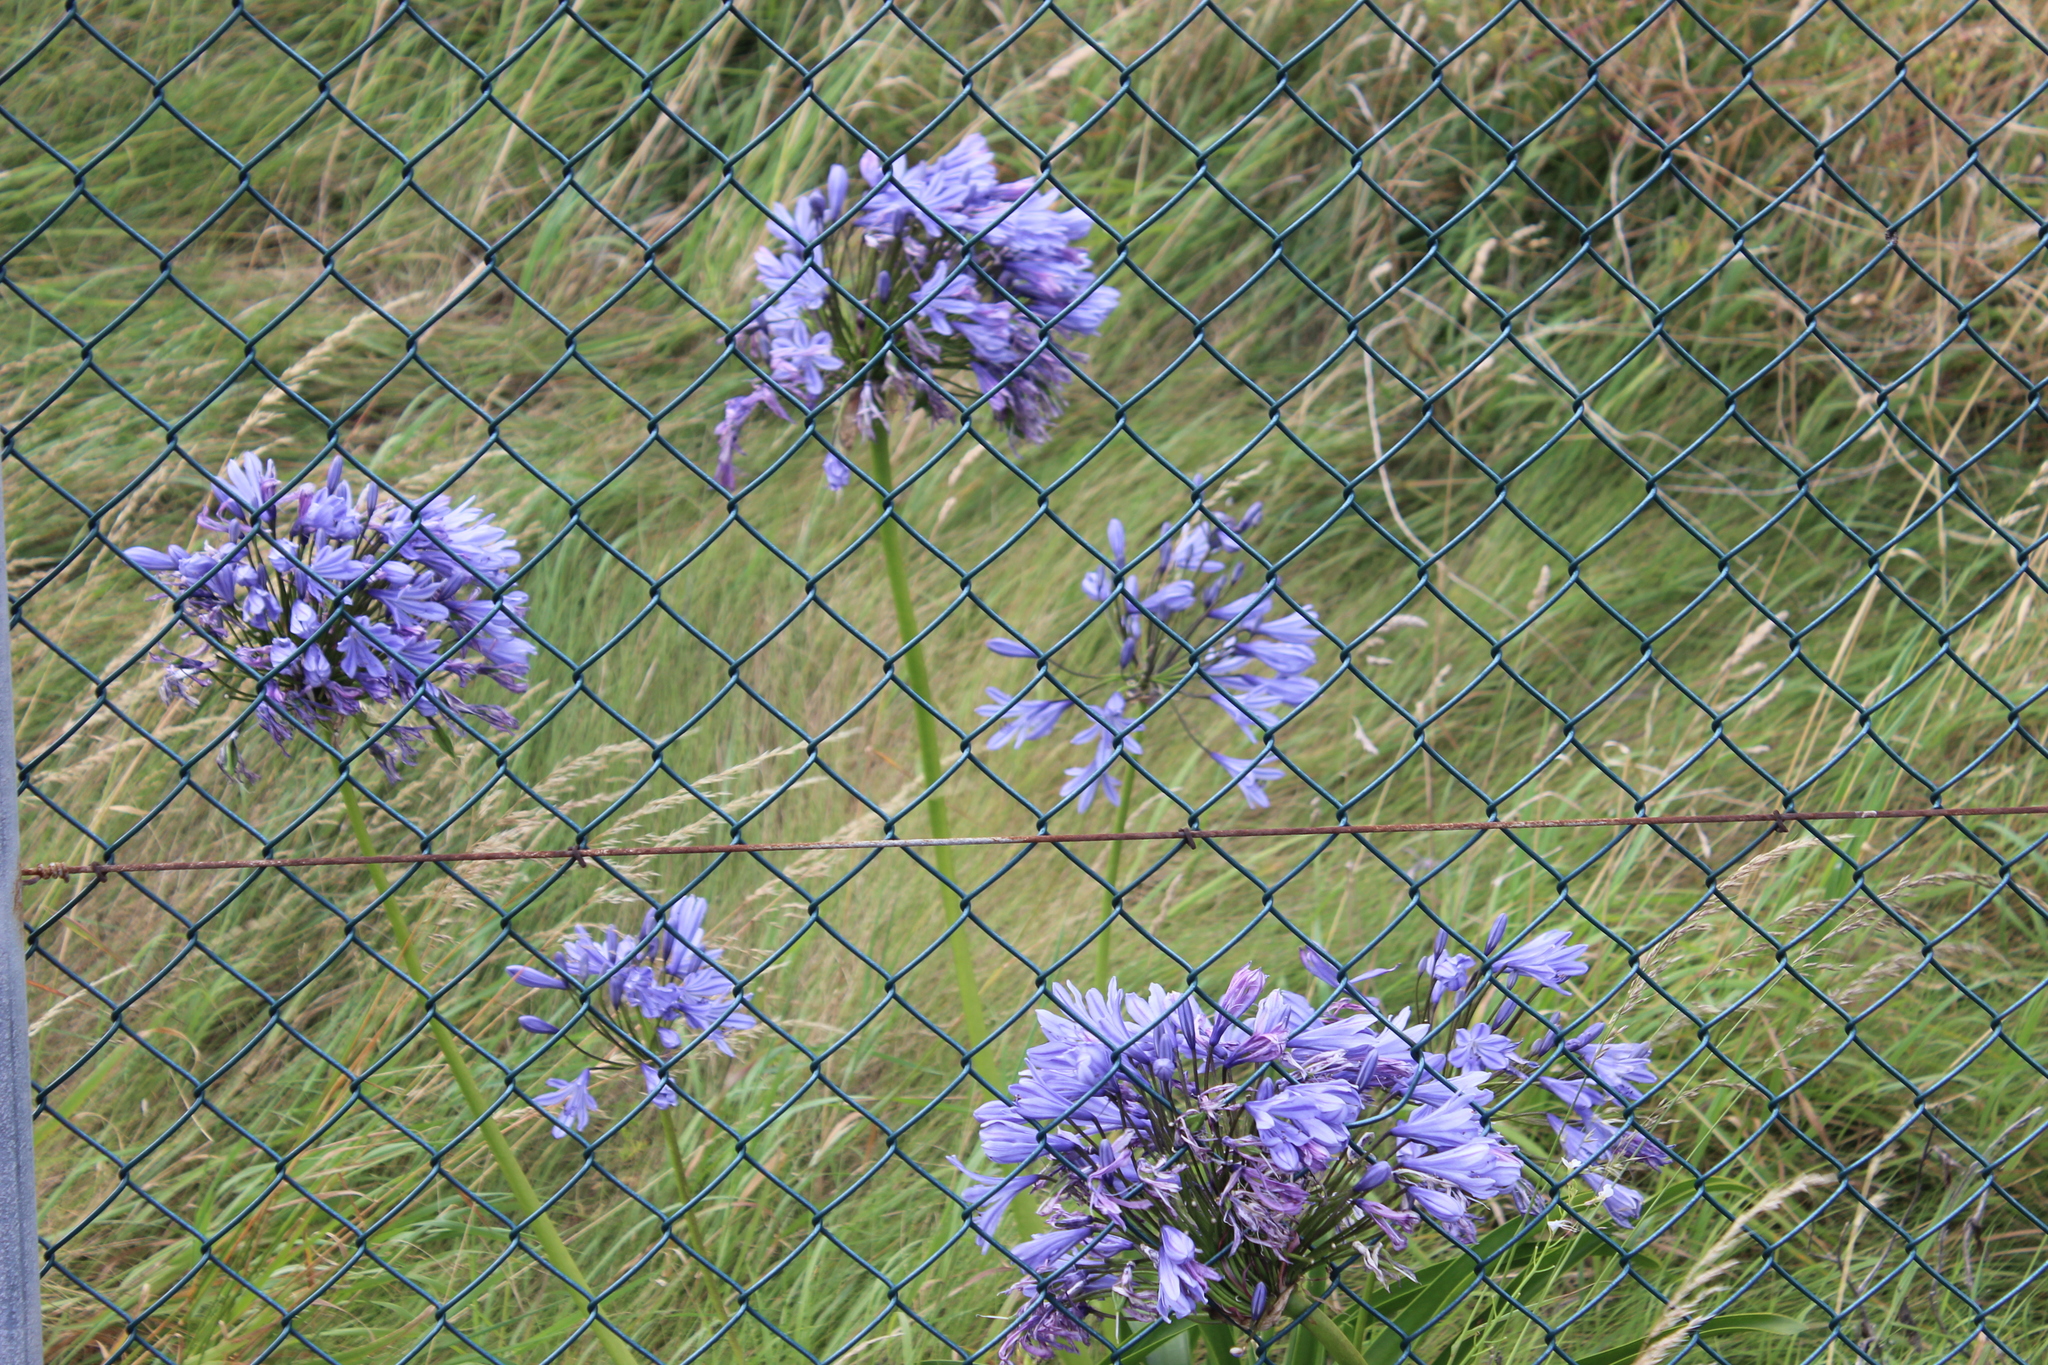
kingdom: Plantae
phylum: Tracheophyta
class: Liliopsida
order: Asparagales
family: Amaryllidaceae
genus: Agapanthus
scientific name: Agapanthus praecox
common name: African-lily
